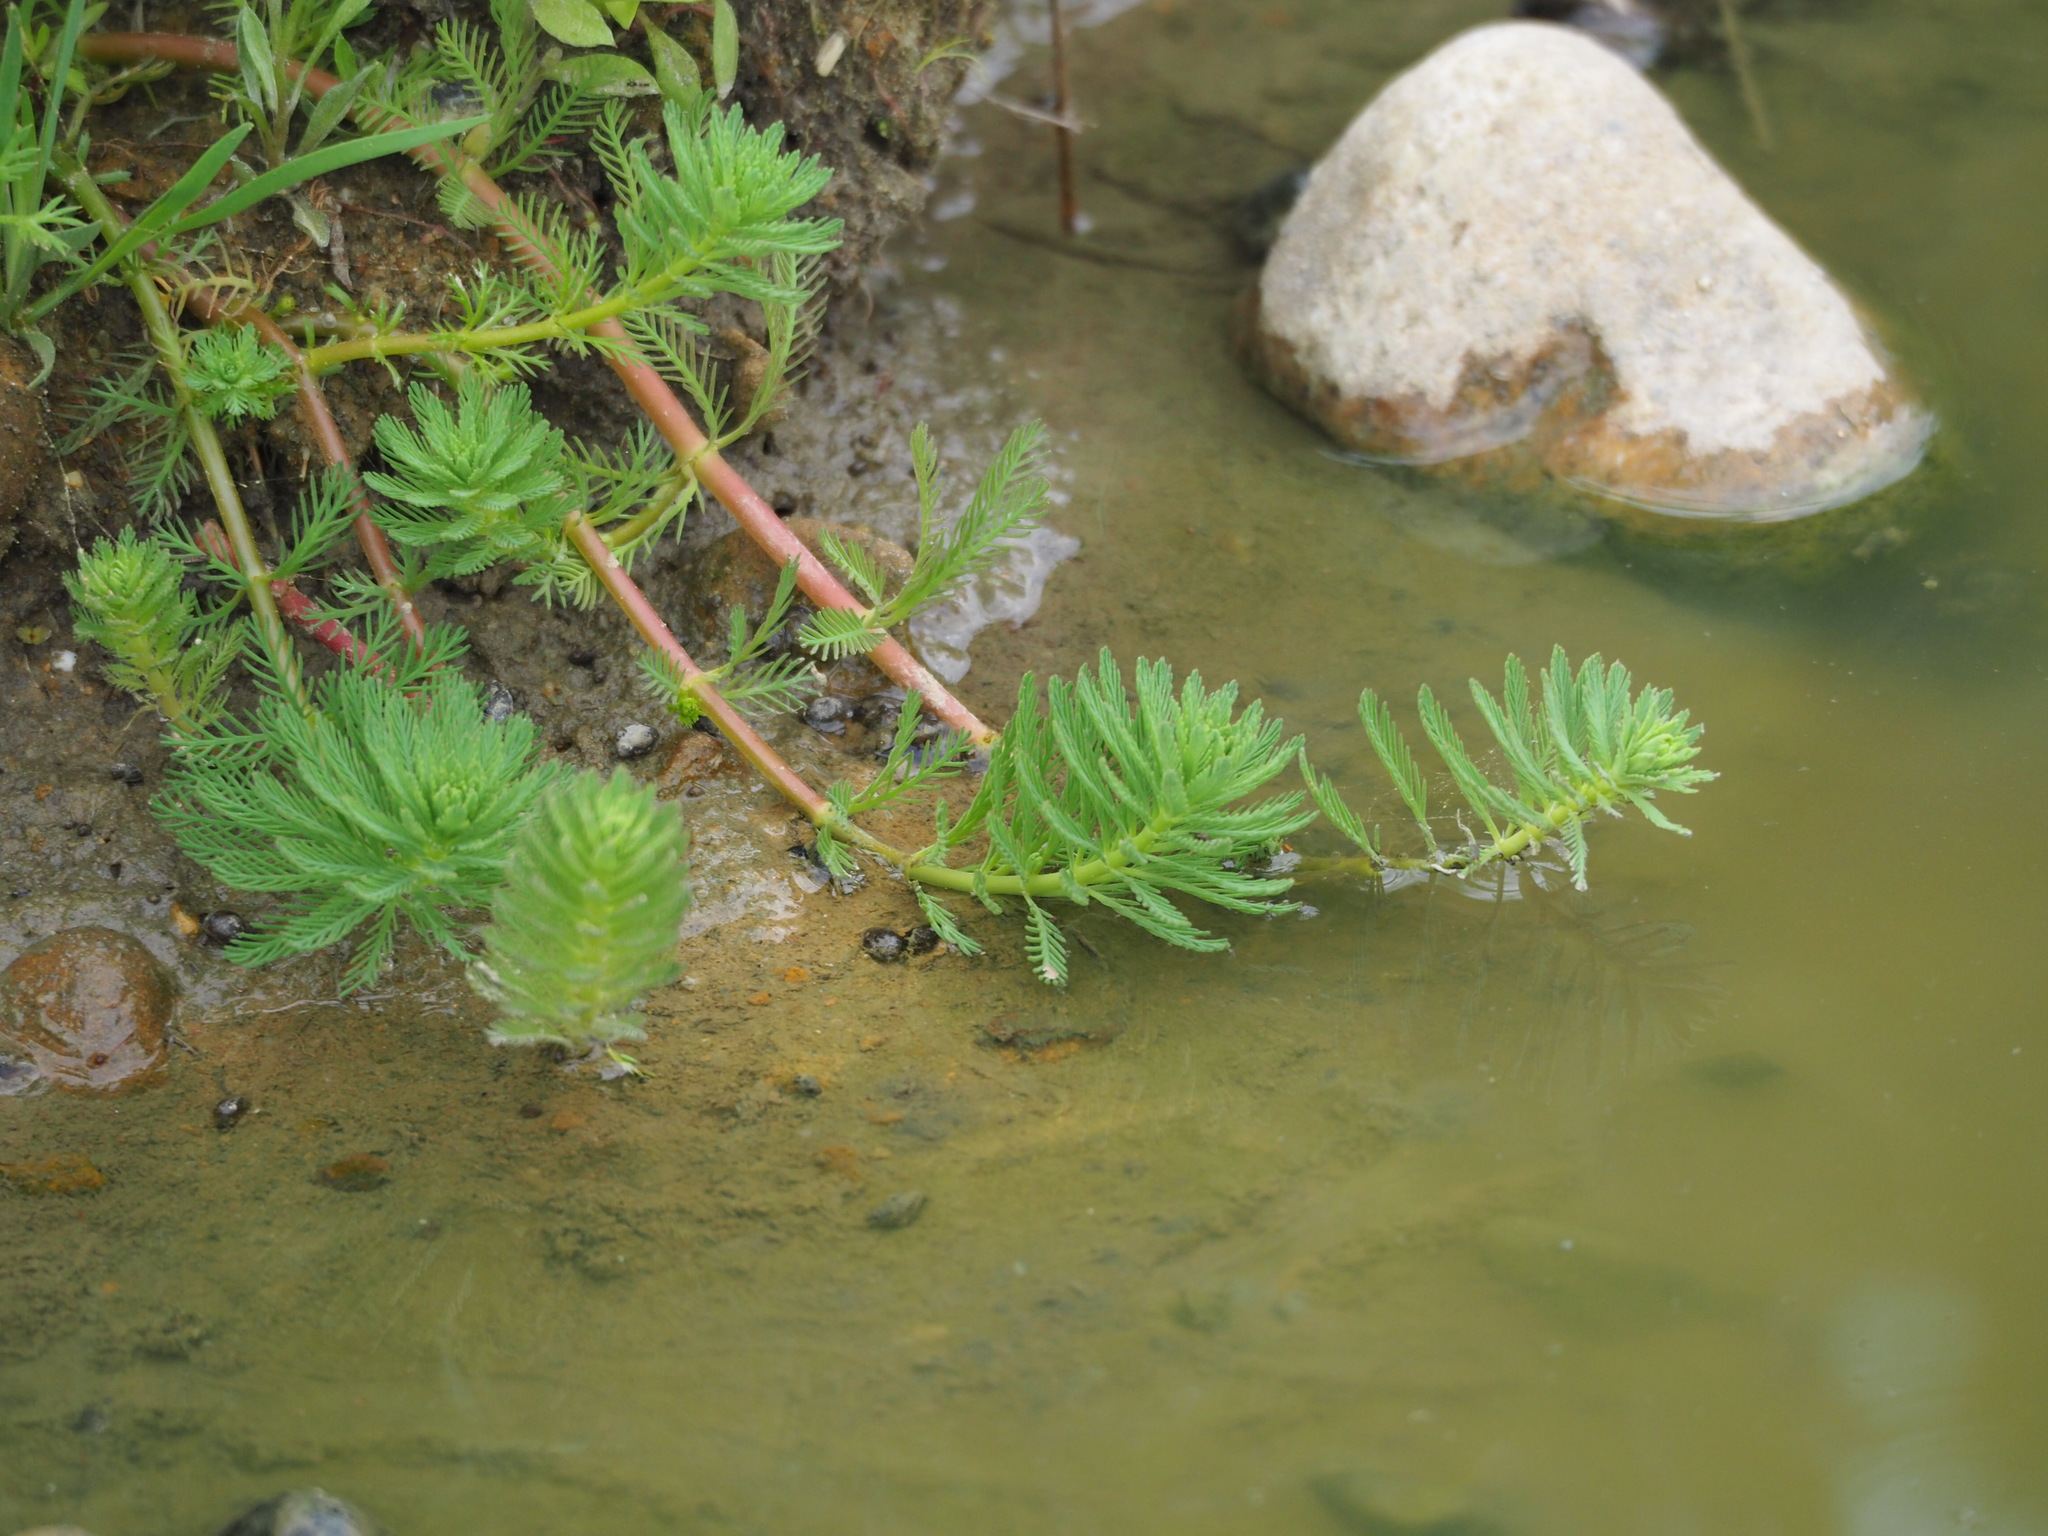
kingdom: Plantae
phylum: Tracheophyta
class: Magnoliopsida
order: Saxifragales
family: Haloragaceae
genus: Myriophyllum
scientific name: Myriophyllum aquaticum
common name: Parrot's feather
